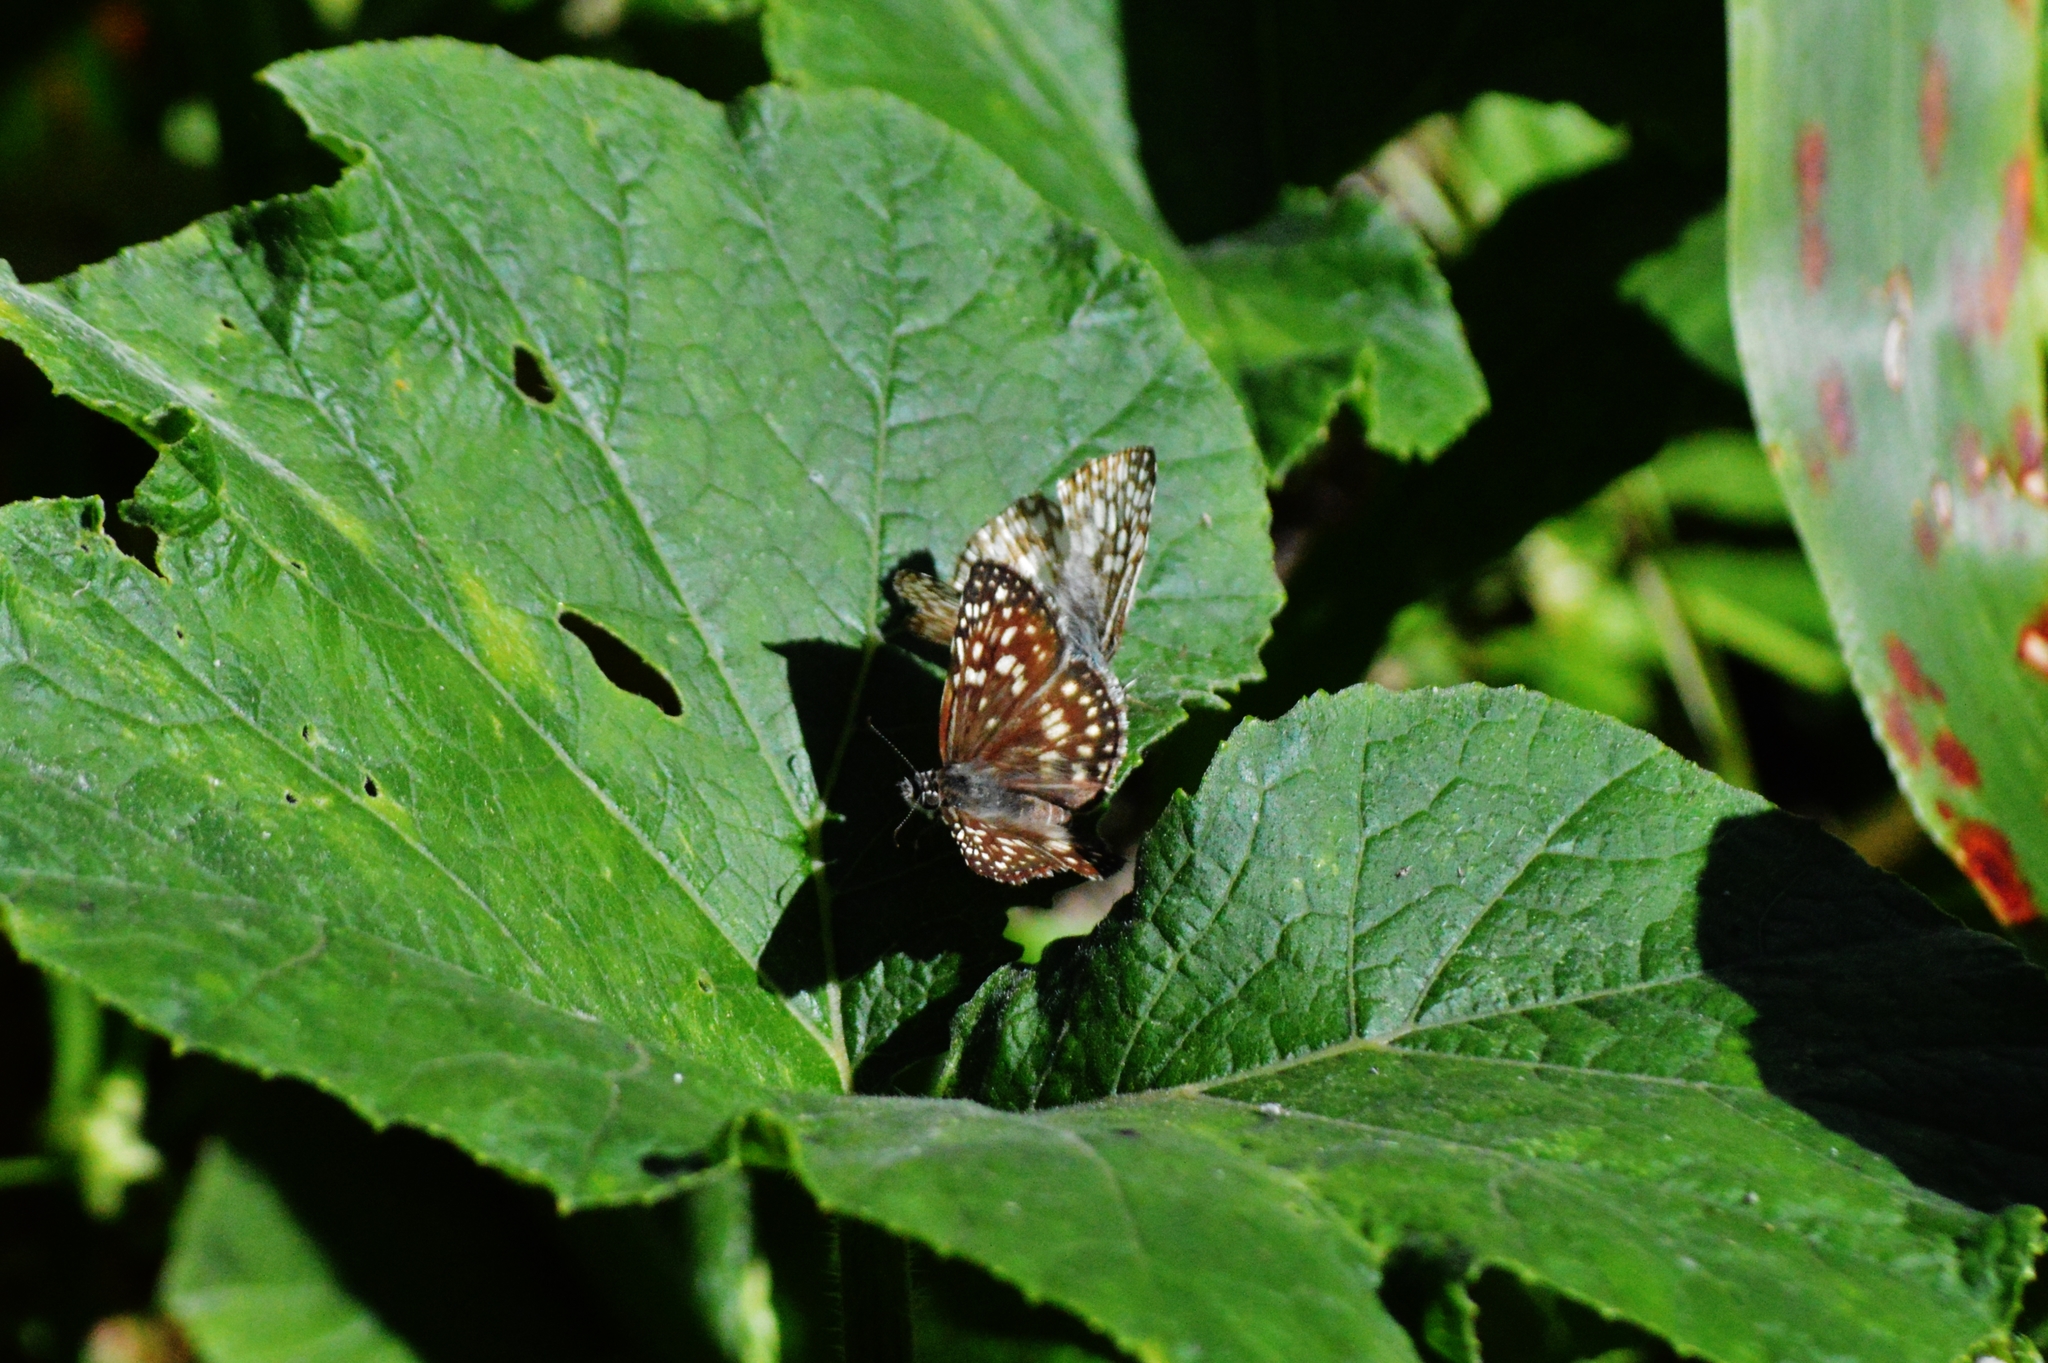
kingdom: Animalia
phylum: Arthropoda
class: Insecta
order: Lepidoptera
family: Hesperiidae
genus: Pyrgus
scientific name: Pyrgus oileus
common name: Tropical checkered-skipper
